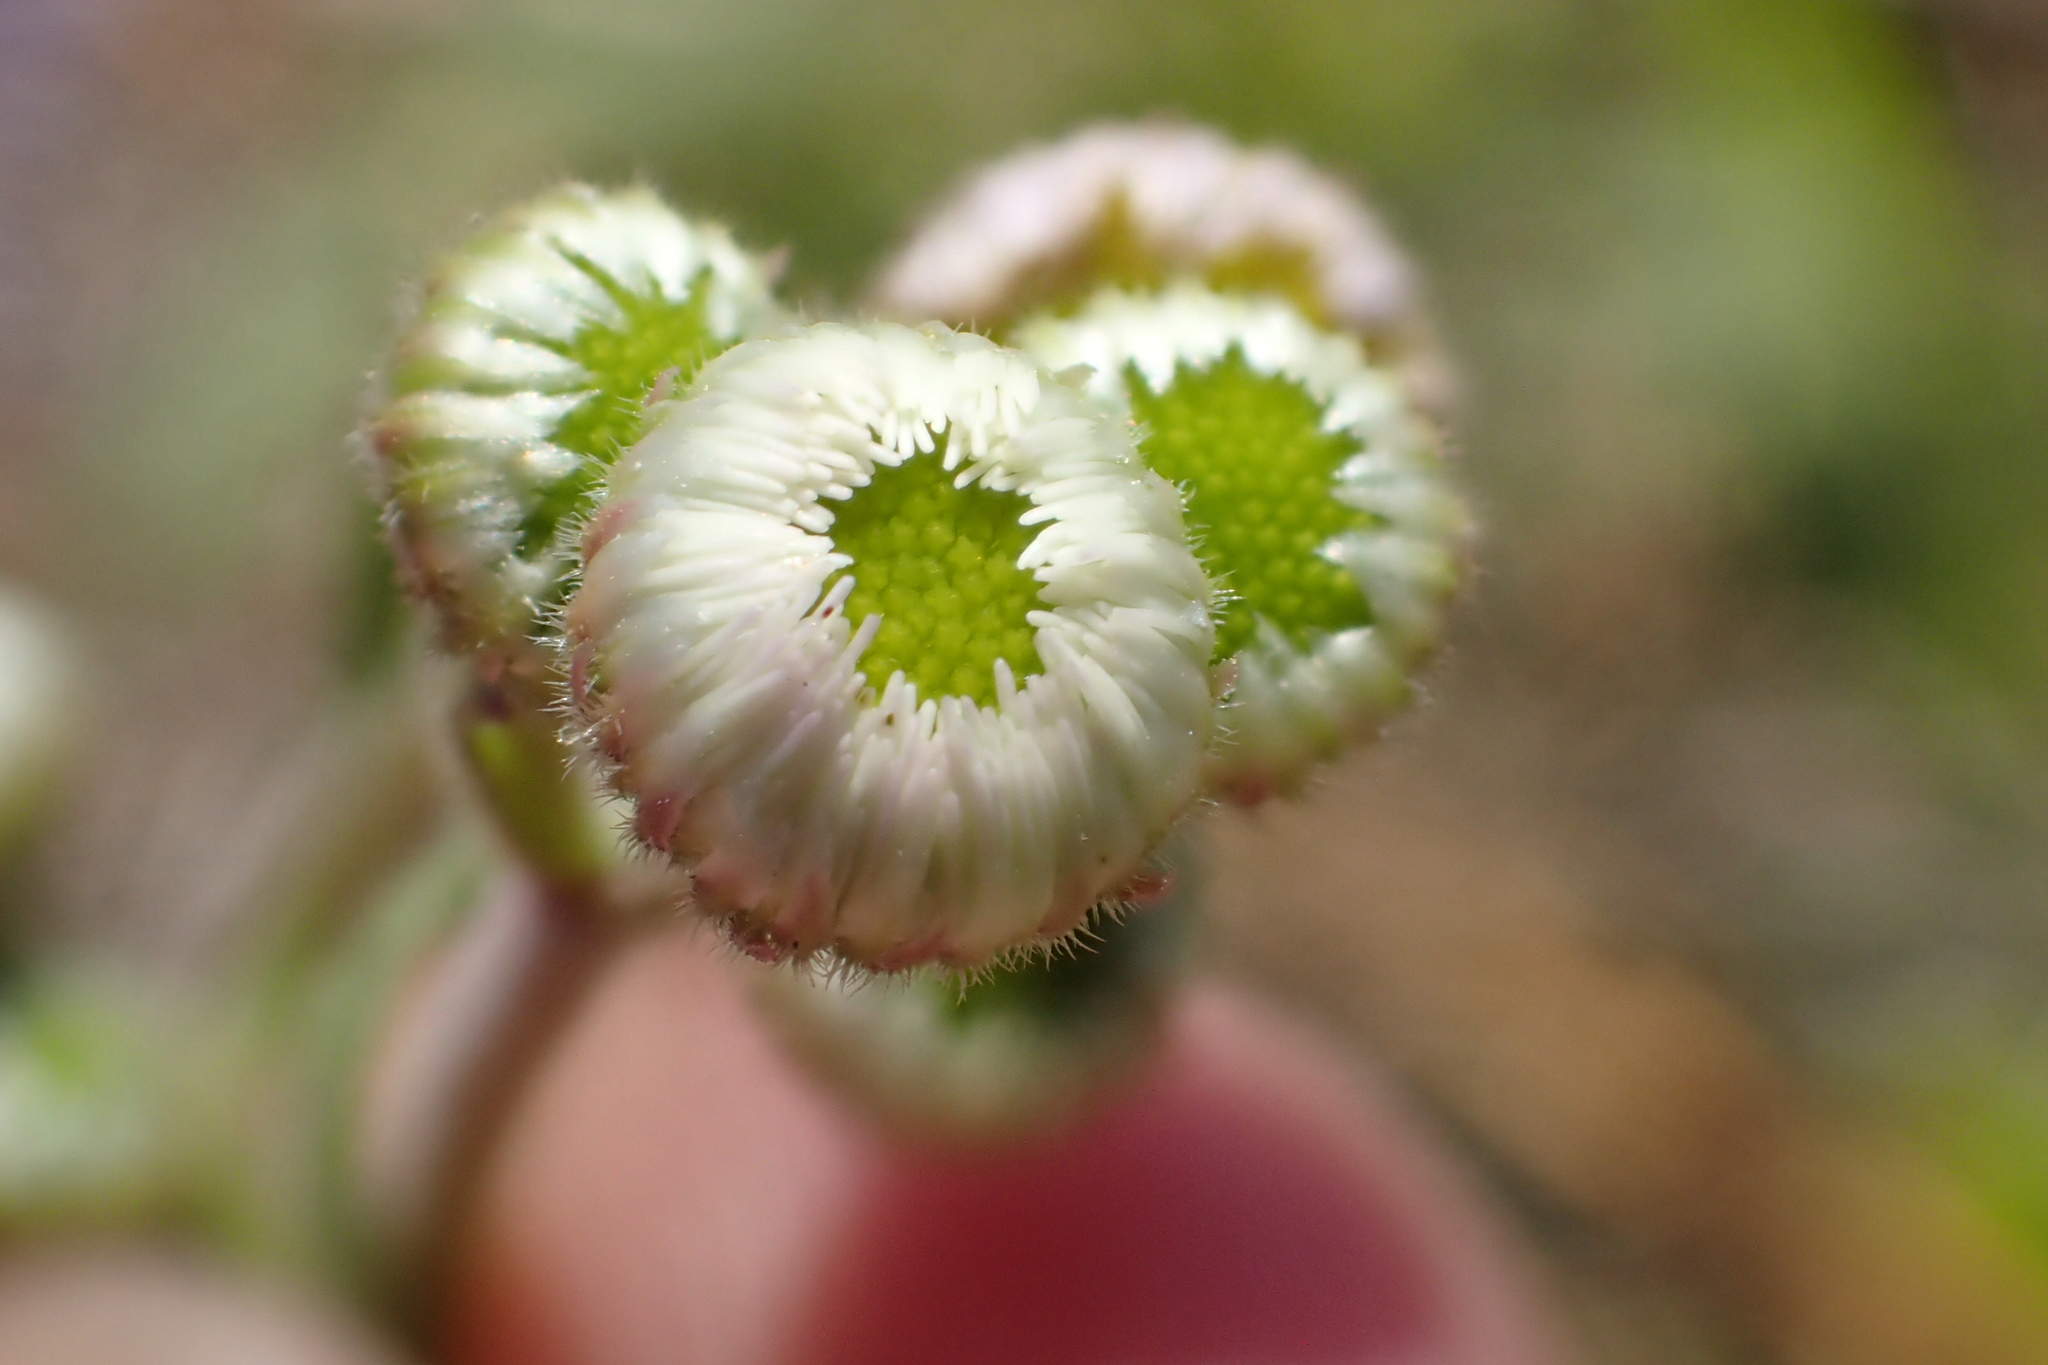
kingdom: Plantae
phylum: Tracheophyta
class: Magnoliopsida
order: Asterales
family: Asteraceae
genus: Erigeron
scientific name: Erigeron quercifolius
